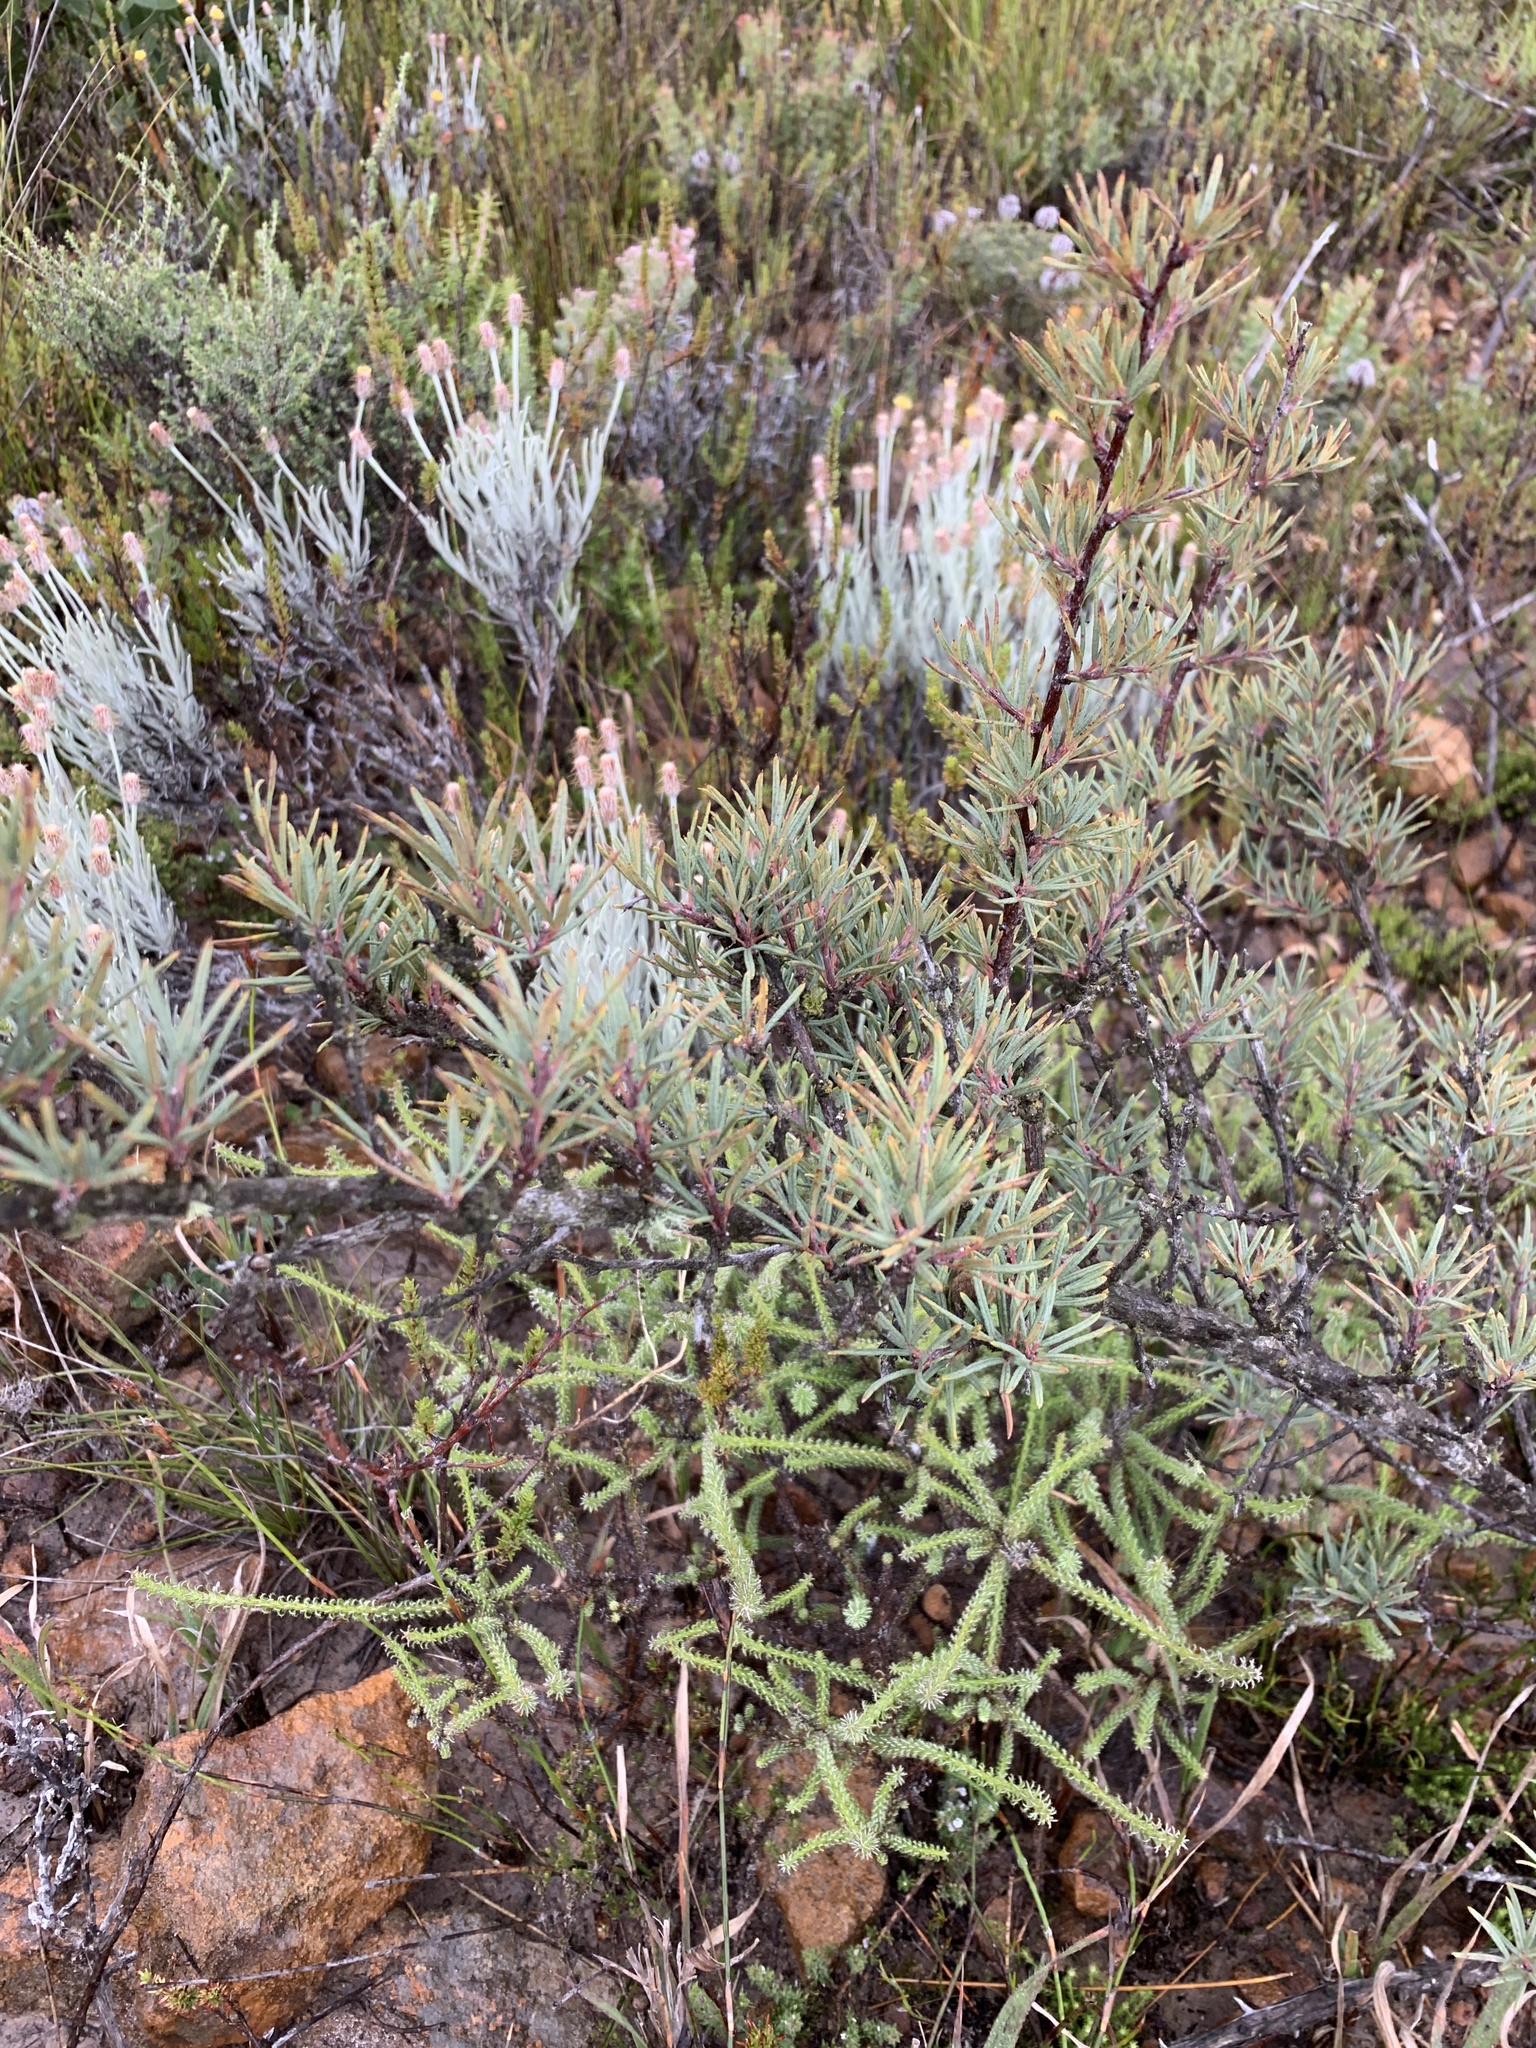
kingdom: Plantae
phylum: Tracheophyta
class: Magnoliopsida
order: Sapindales
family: Anacardiaceae
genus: Searsia
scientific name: Searsia rosmarinifolia
